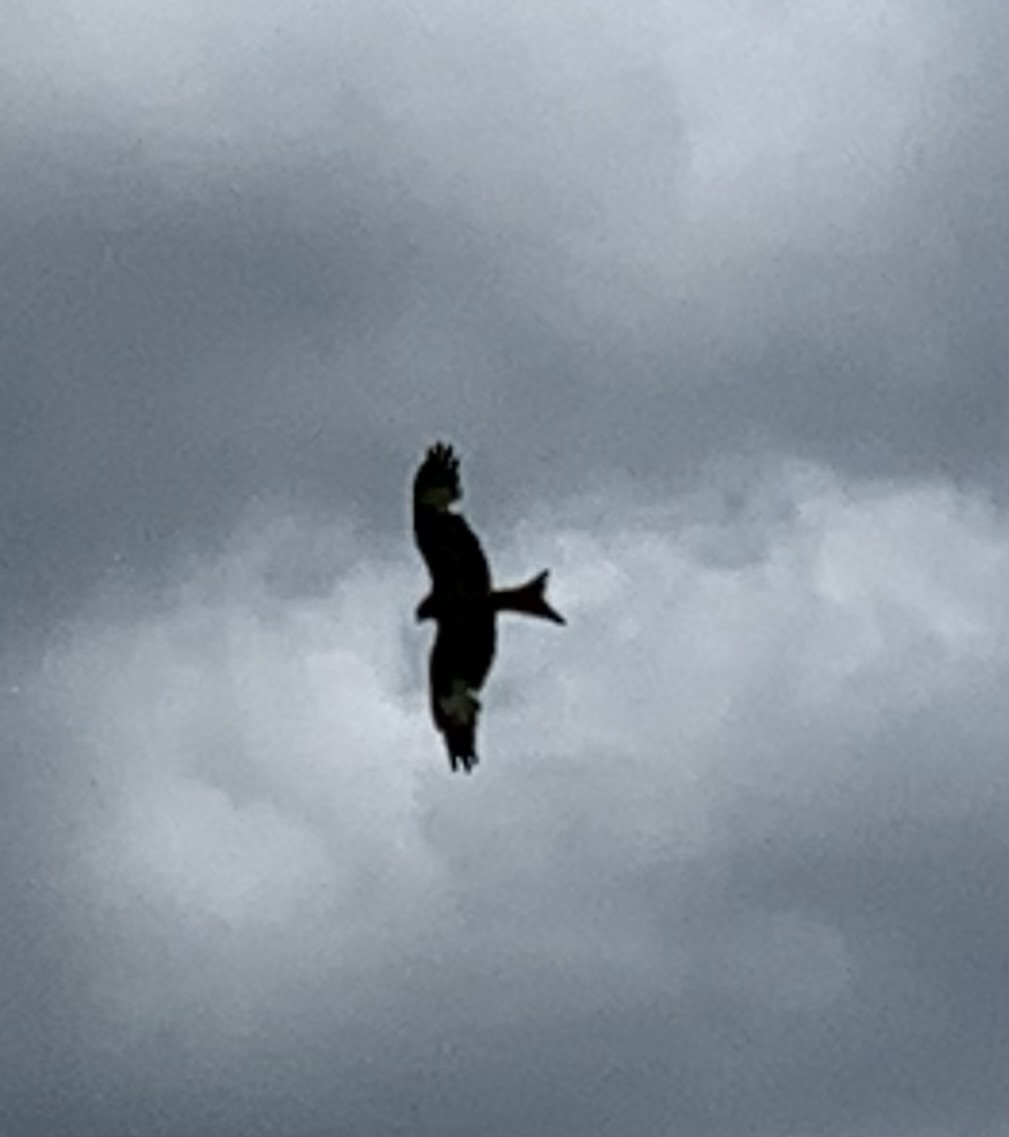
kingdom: Animalia
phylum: Chordata
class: Aves
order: Accipitriformes
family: Accipitridae
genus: Milvus
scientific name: Milvus milvus
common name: Red kite
